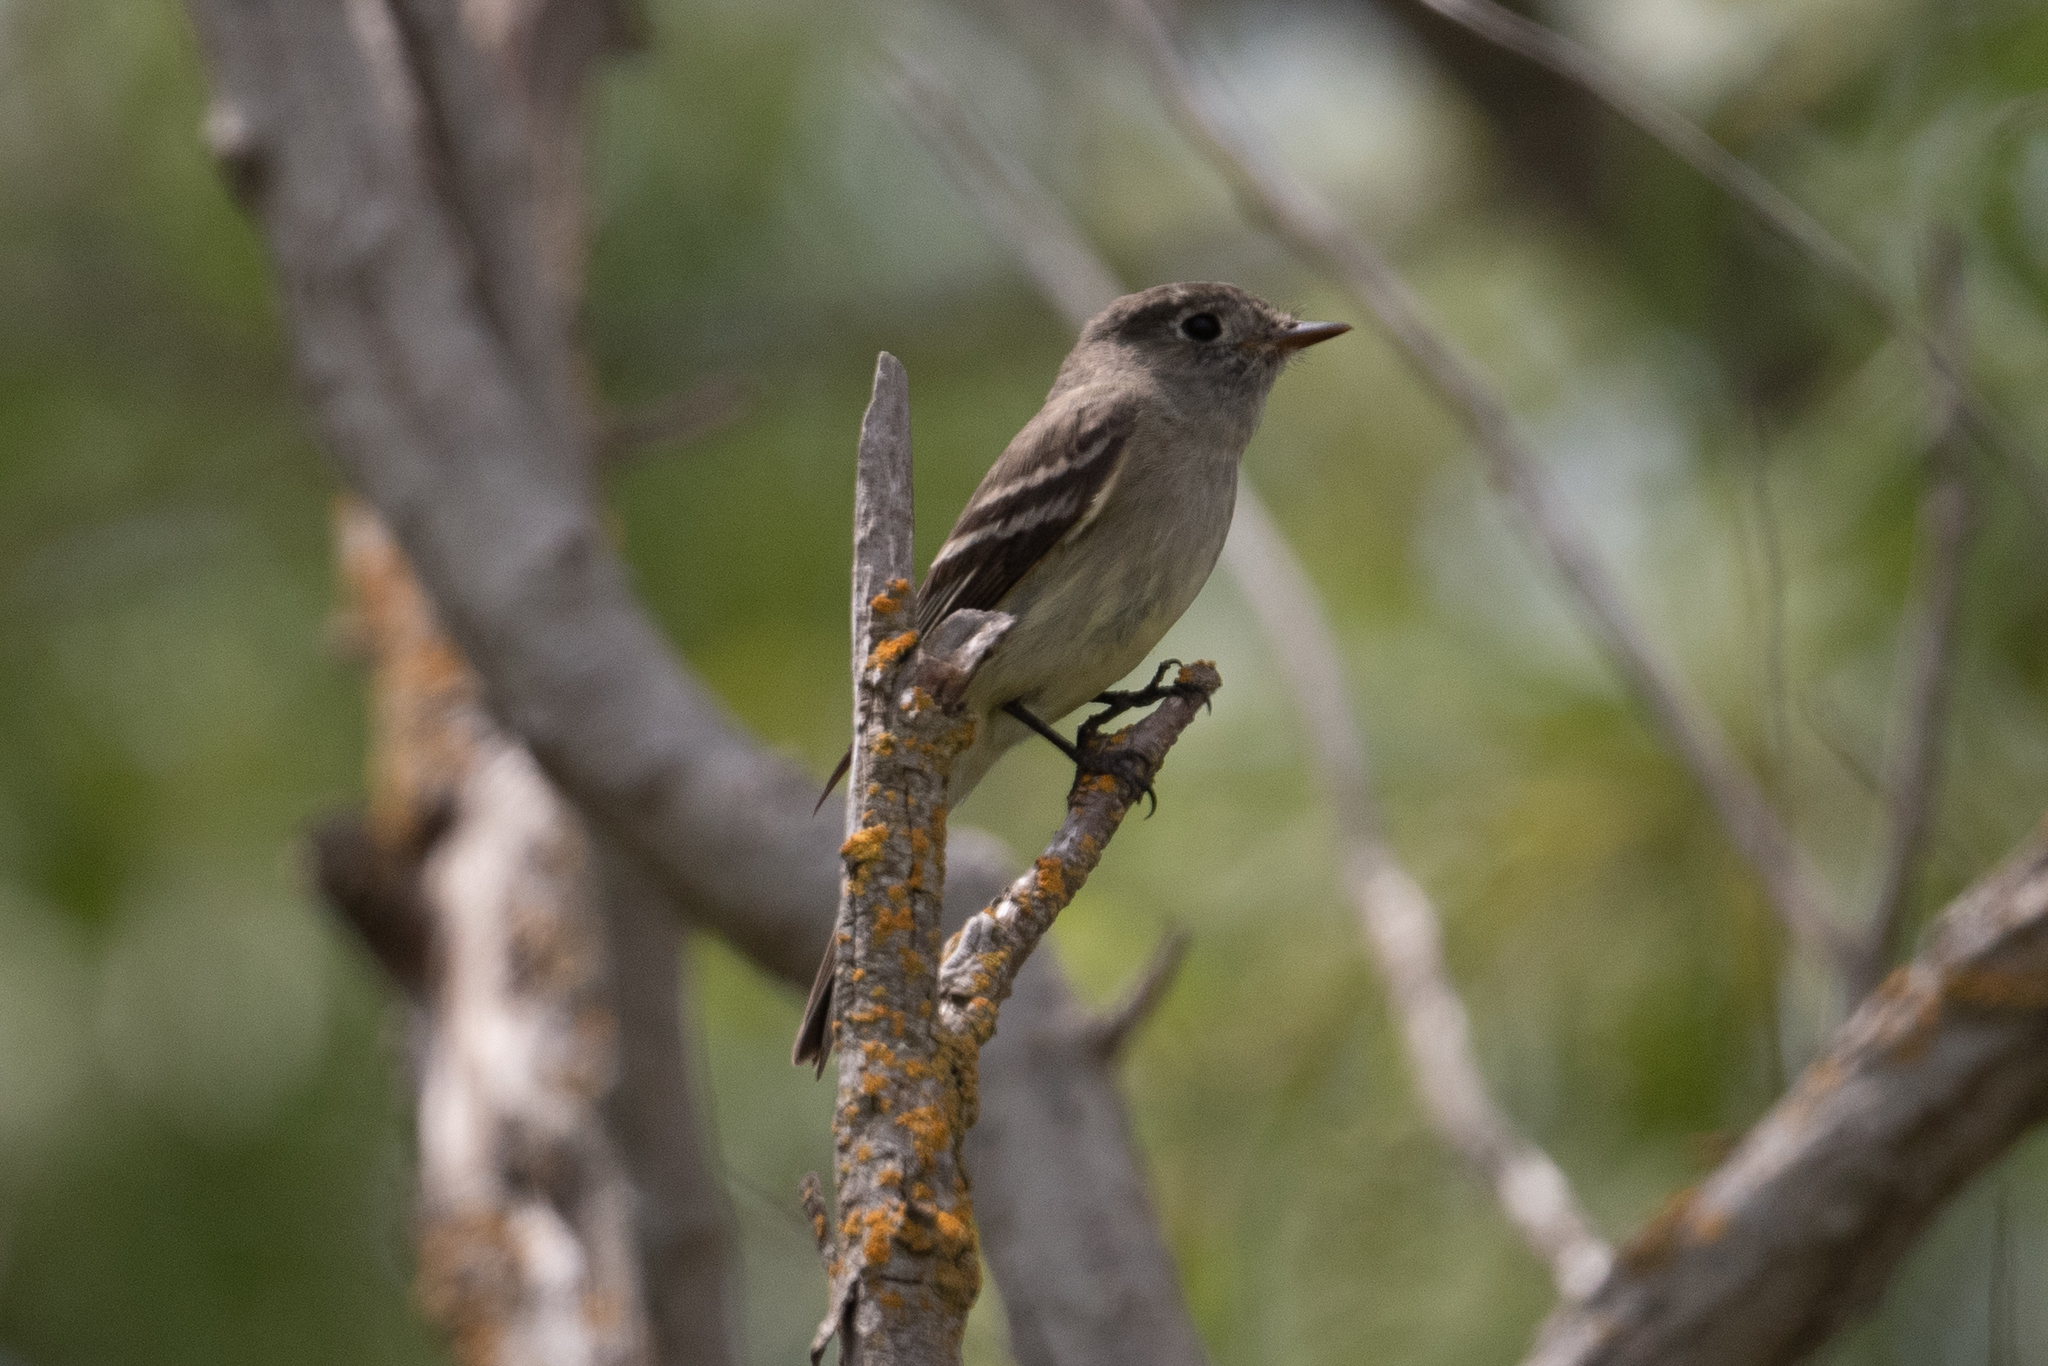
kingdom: Animalia
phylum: Chordata
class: Aves
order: Passeriformes
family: Tyrannidae
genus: Empidonax
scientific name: Empidonax hammondii
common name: Hammond's flycatcher
